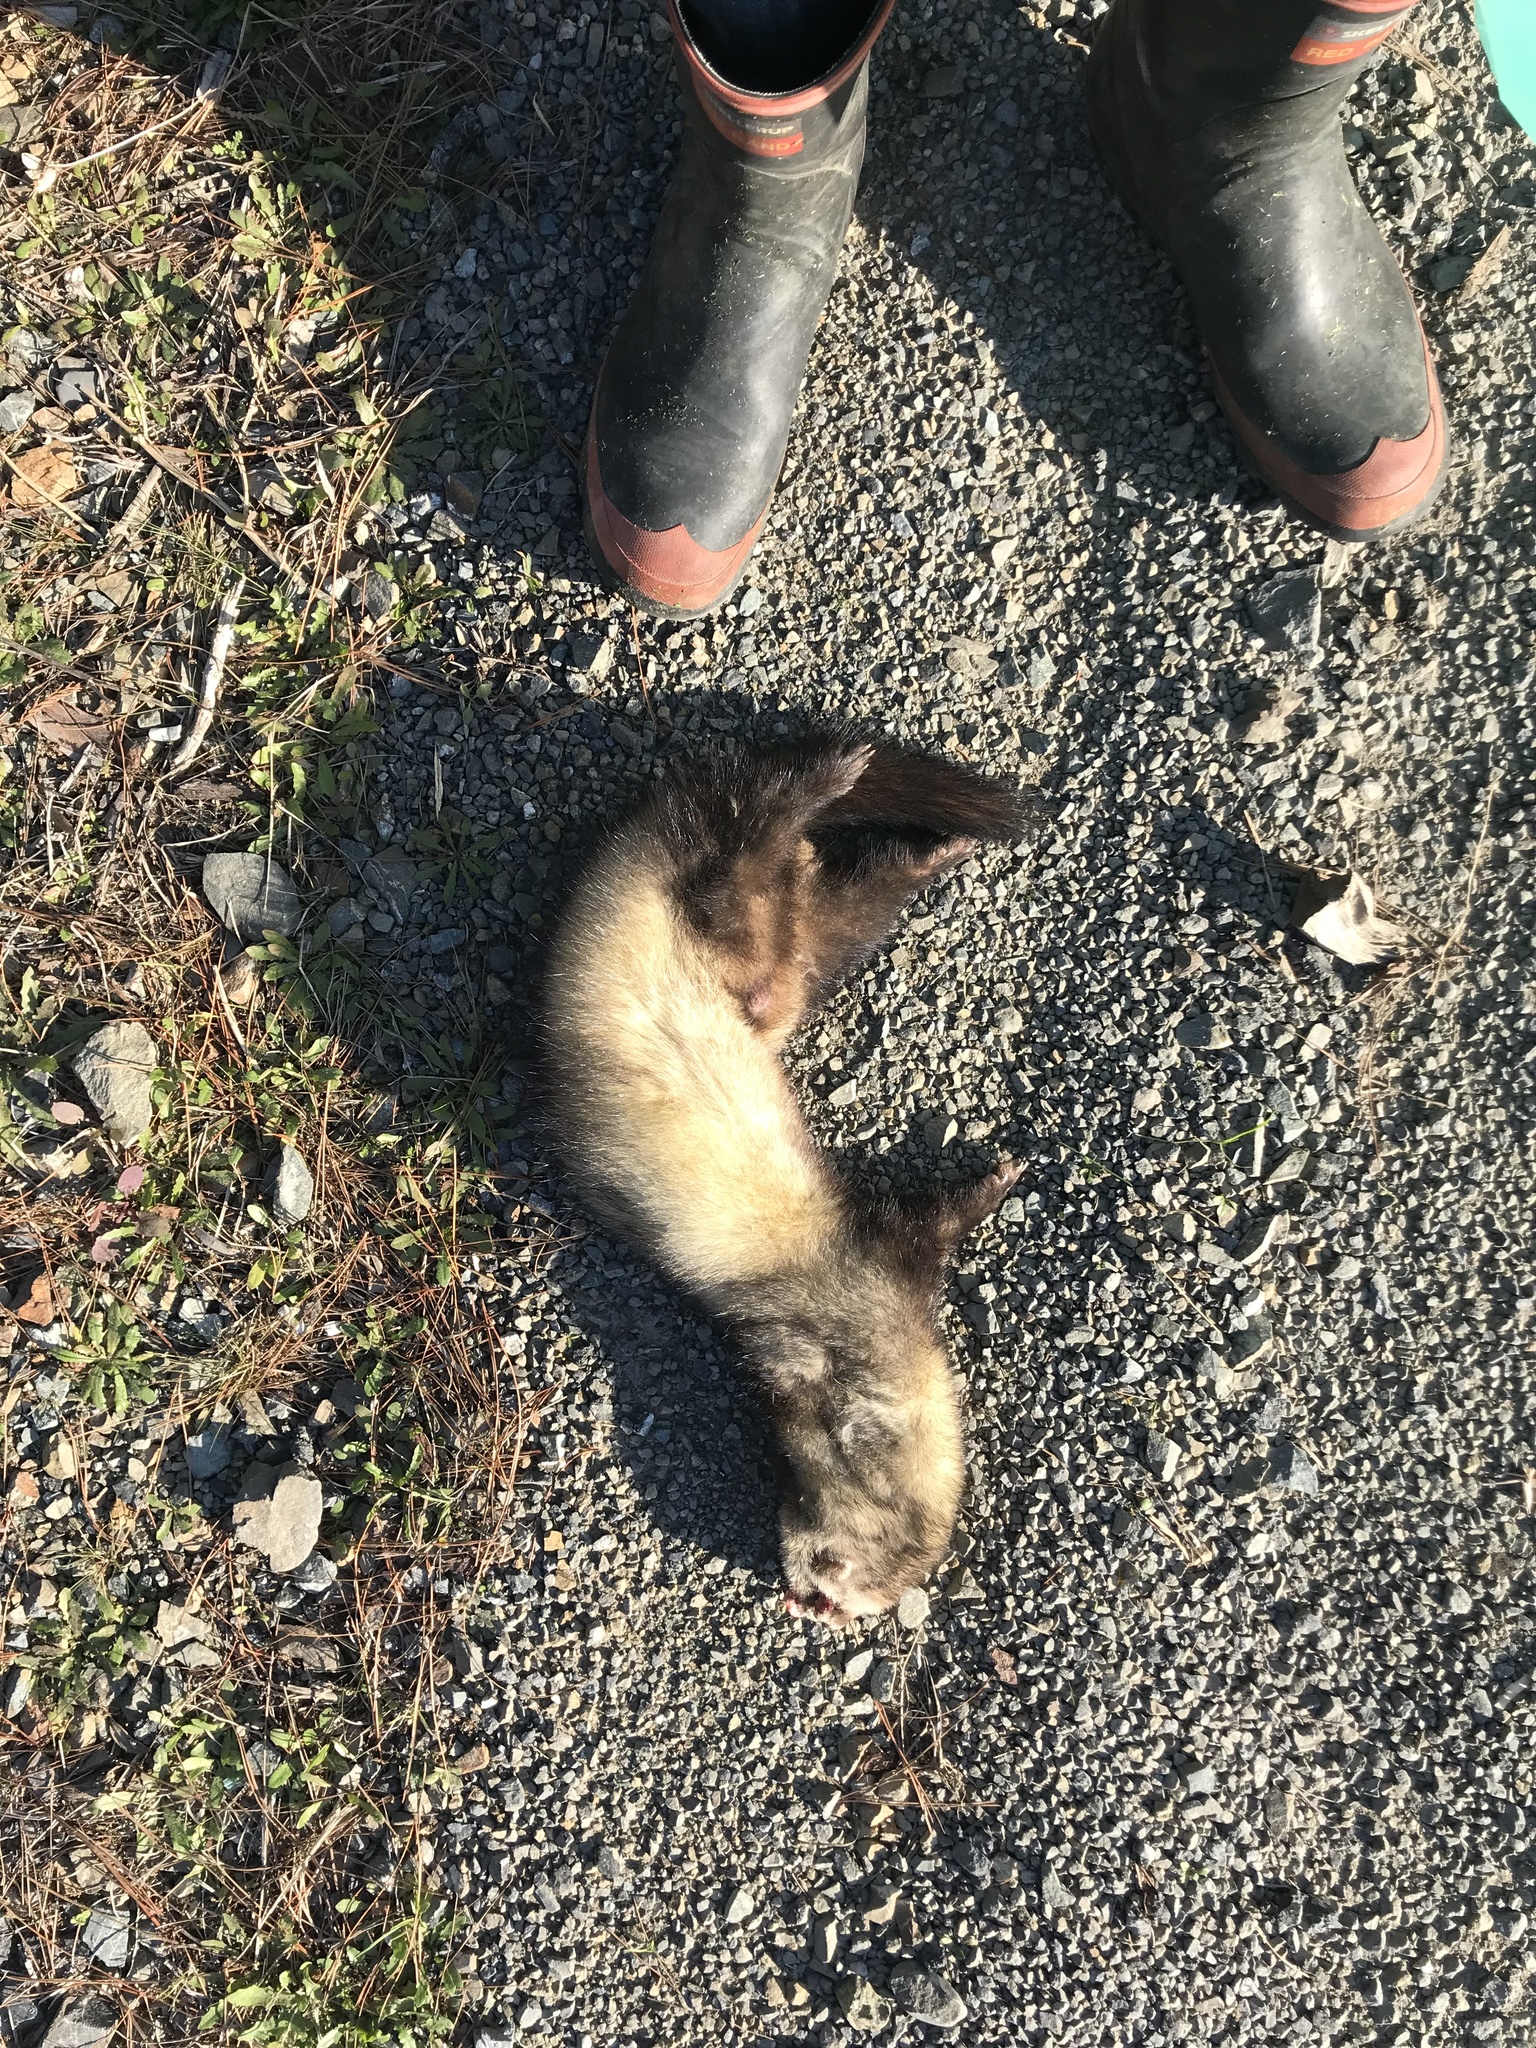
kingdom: Animalia
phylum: Chordata
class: Mammalia
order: Carnivora
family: Mustelidae
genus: Mustela
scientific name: Mustela putorius
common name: European polecat
